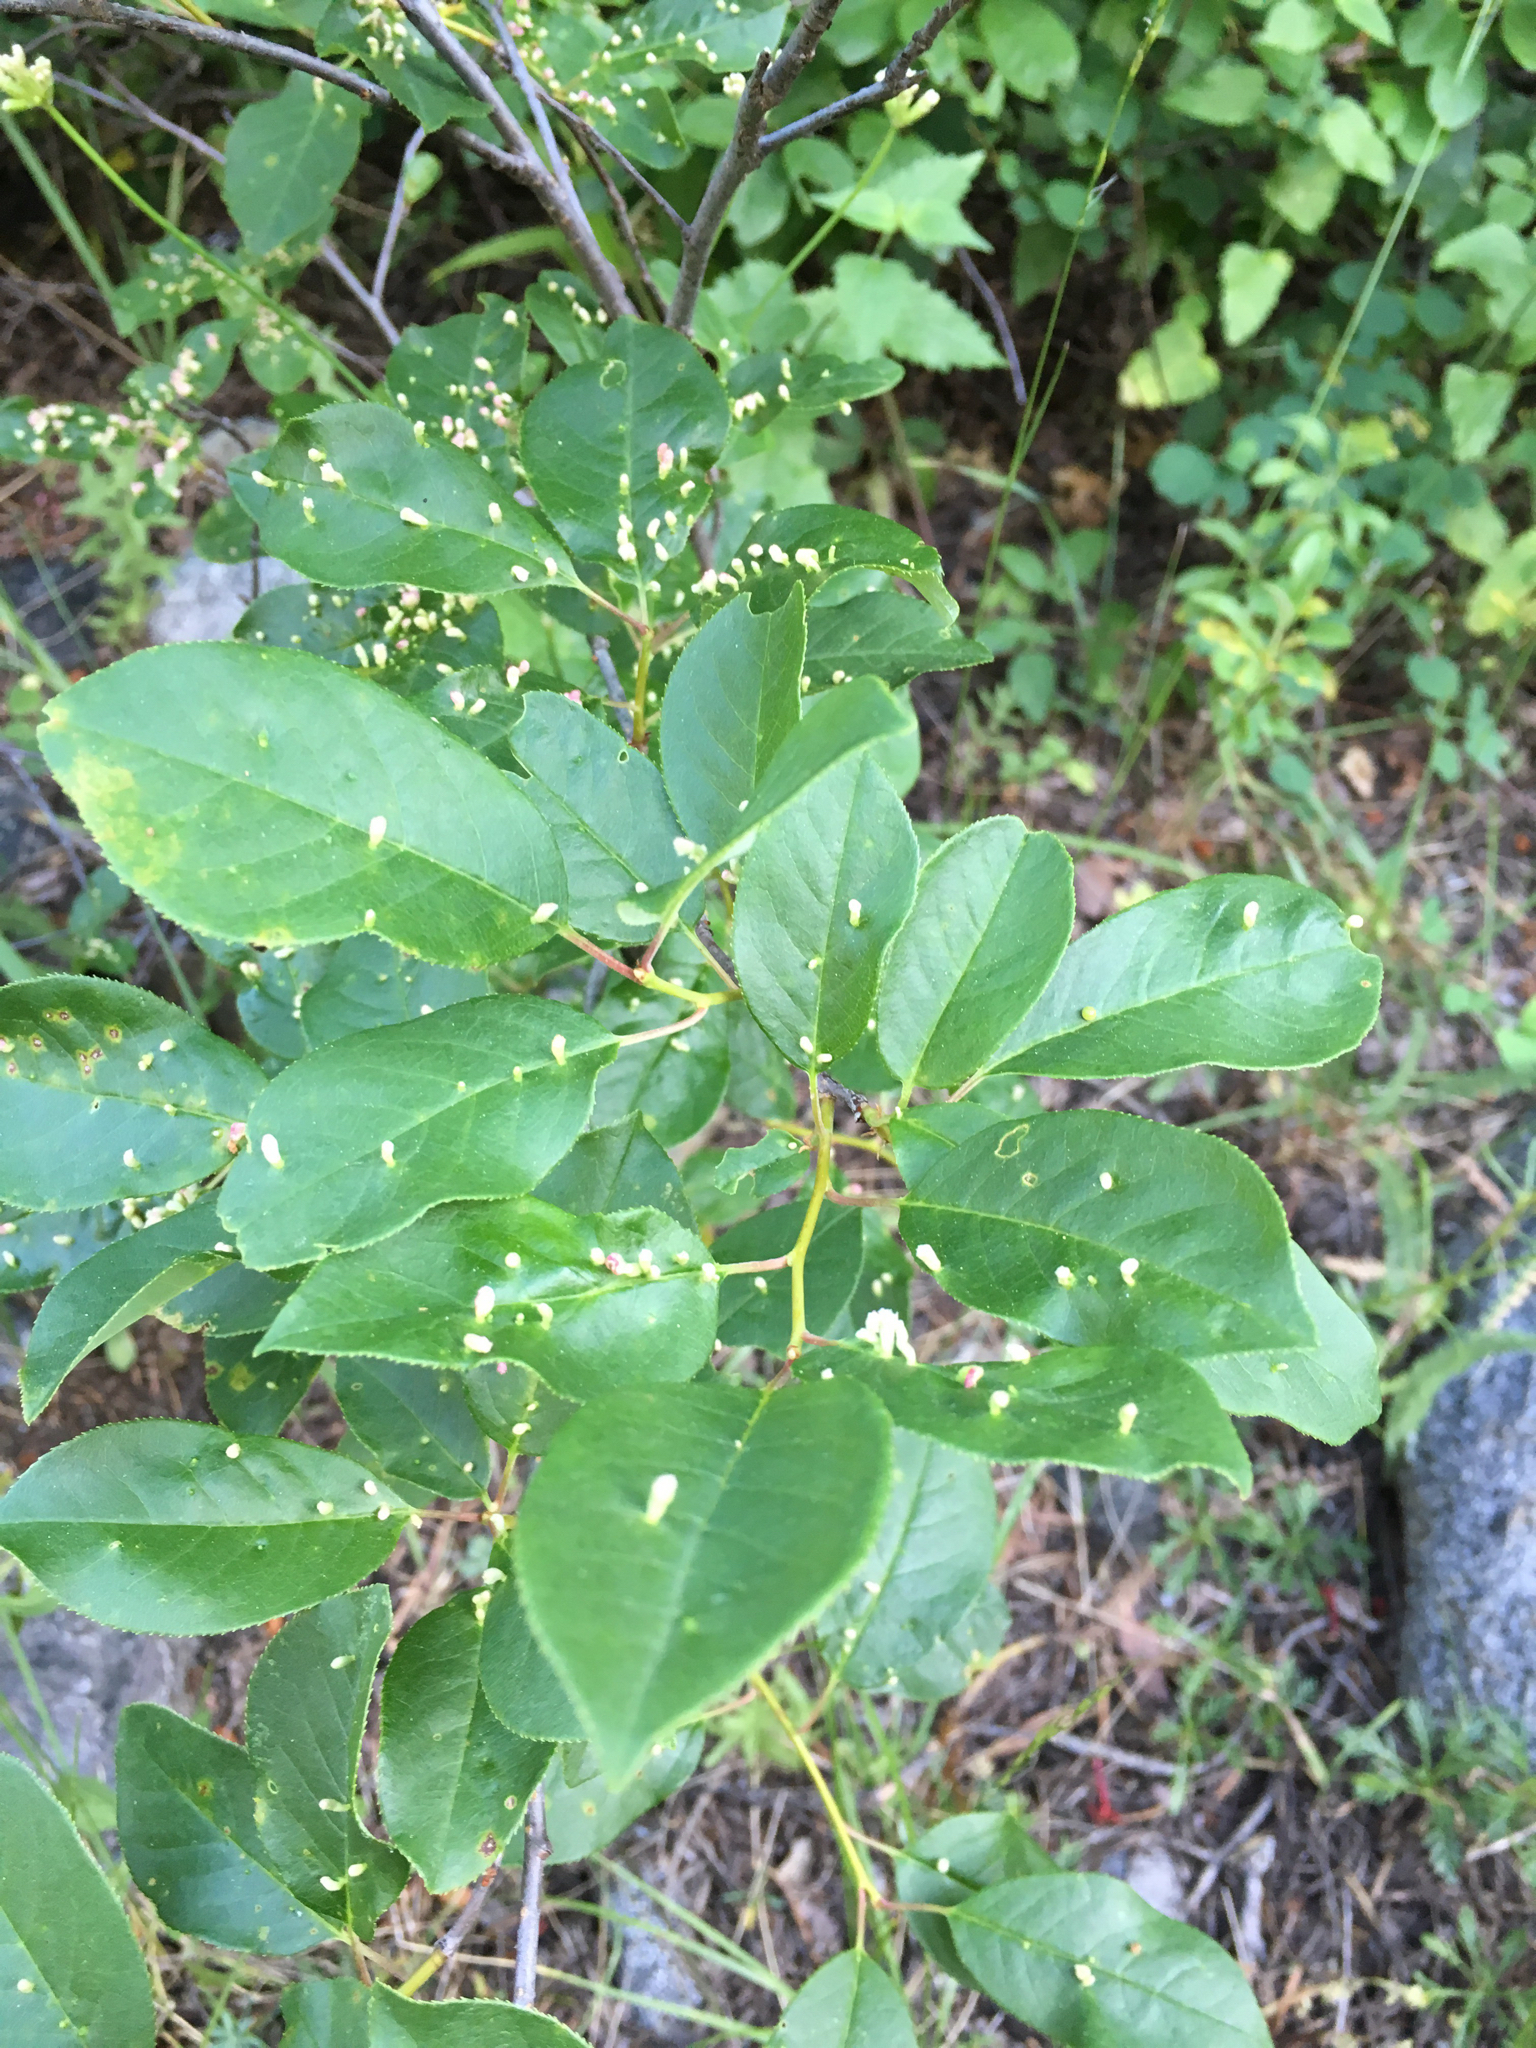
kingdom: Animalia
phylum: Arthropoda
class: Arachnida
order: Trombidiformes
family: Eriophyidae
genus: Eriophyes
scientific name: Eriophyes emarginatae
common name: Plum leaf gall mite
